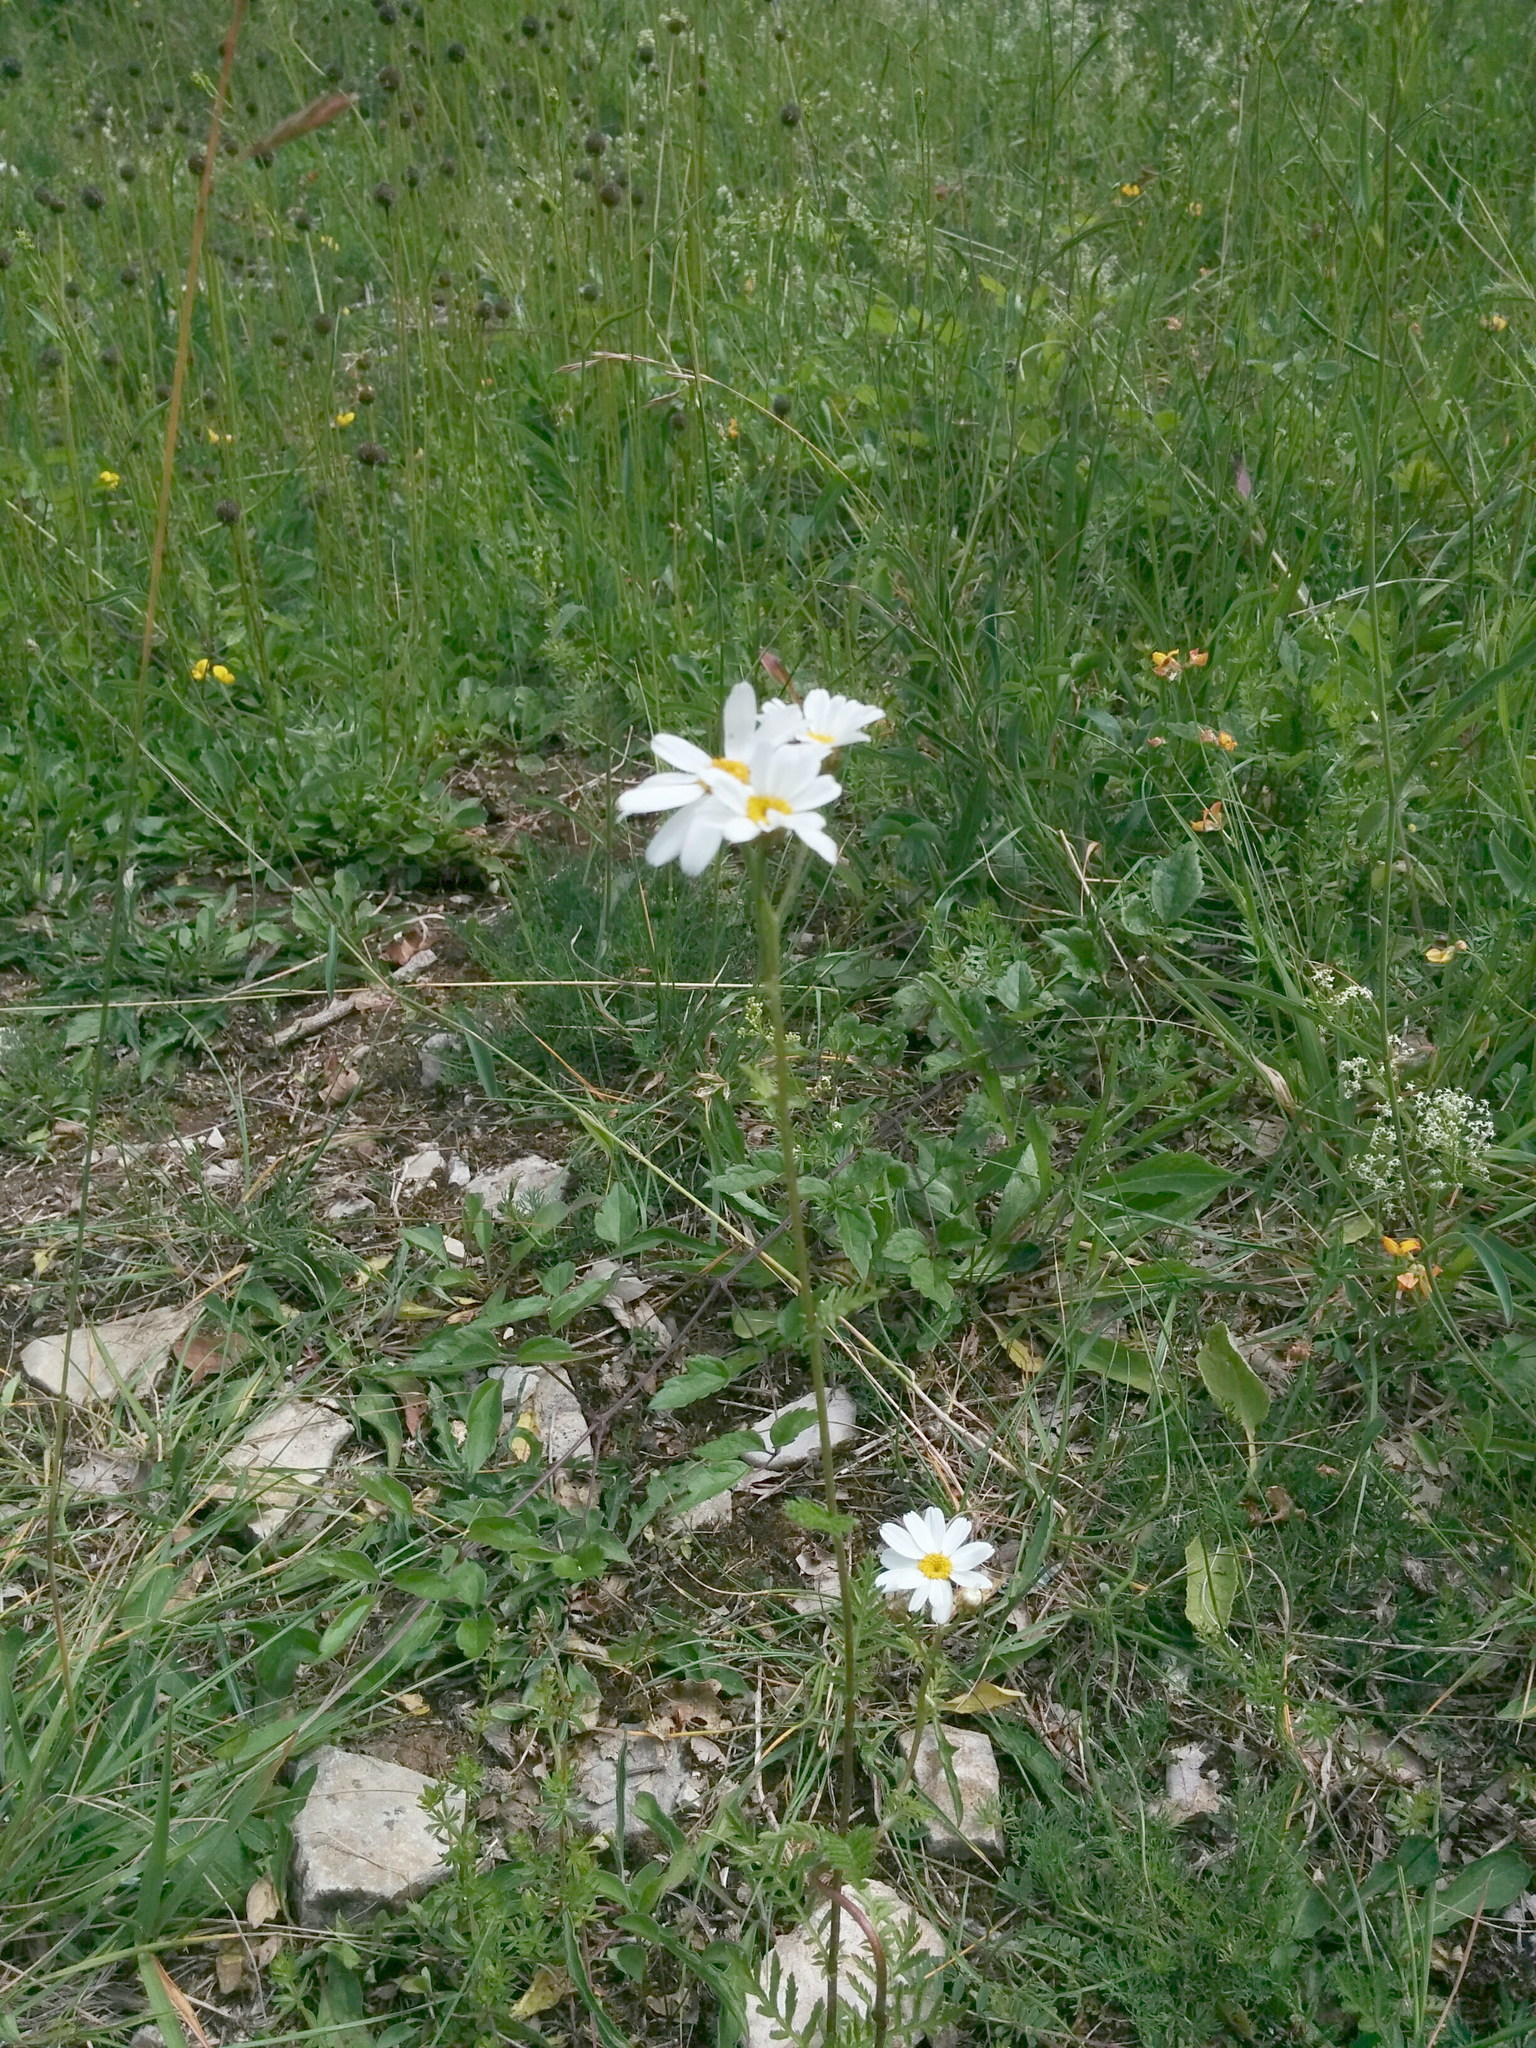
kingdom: Plantae
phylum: Tracheophyta
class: Magnoliopsida
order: Asterales
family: Asteraceae
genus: Tanacetum
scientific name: Tanacetum corymbosum
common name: Scentless feverfew
